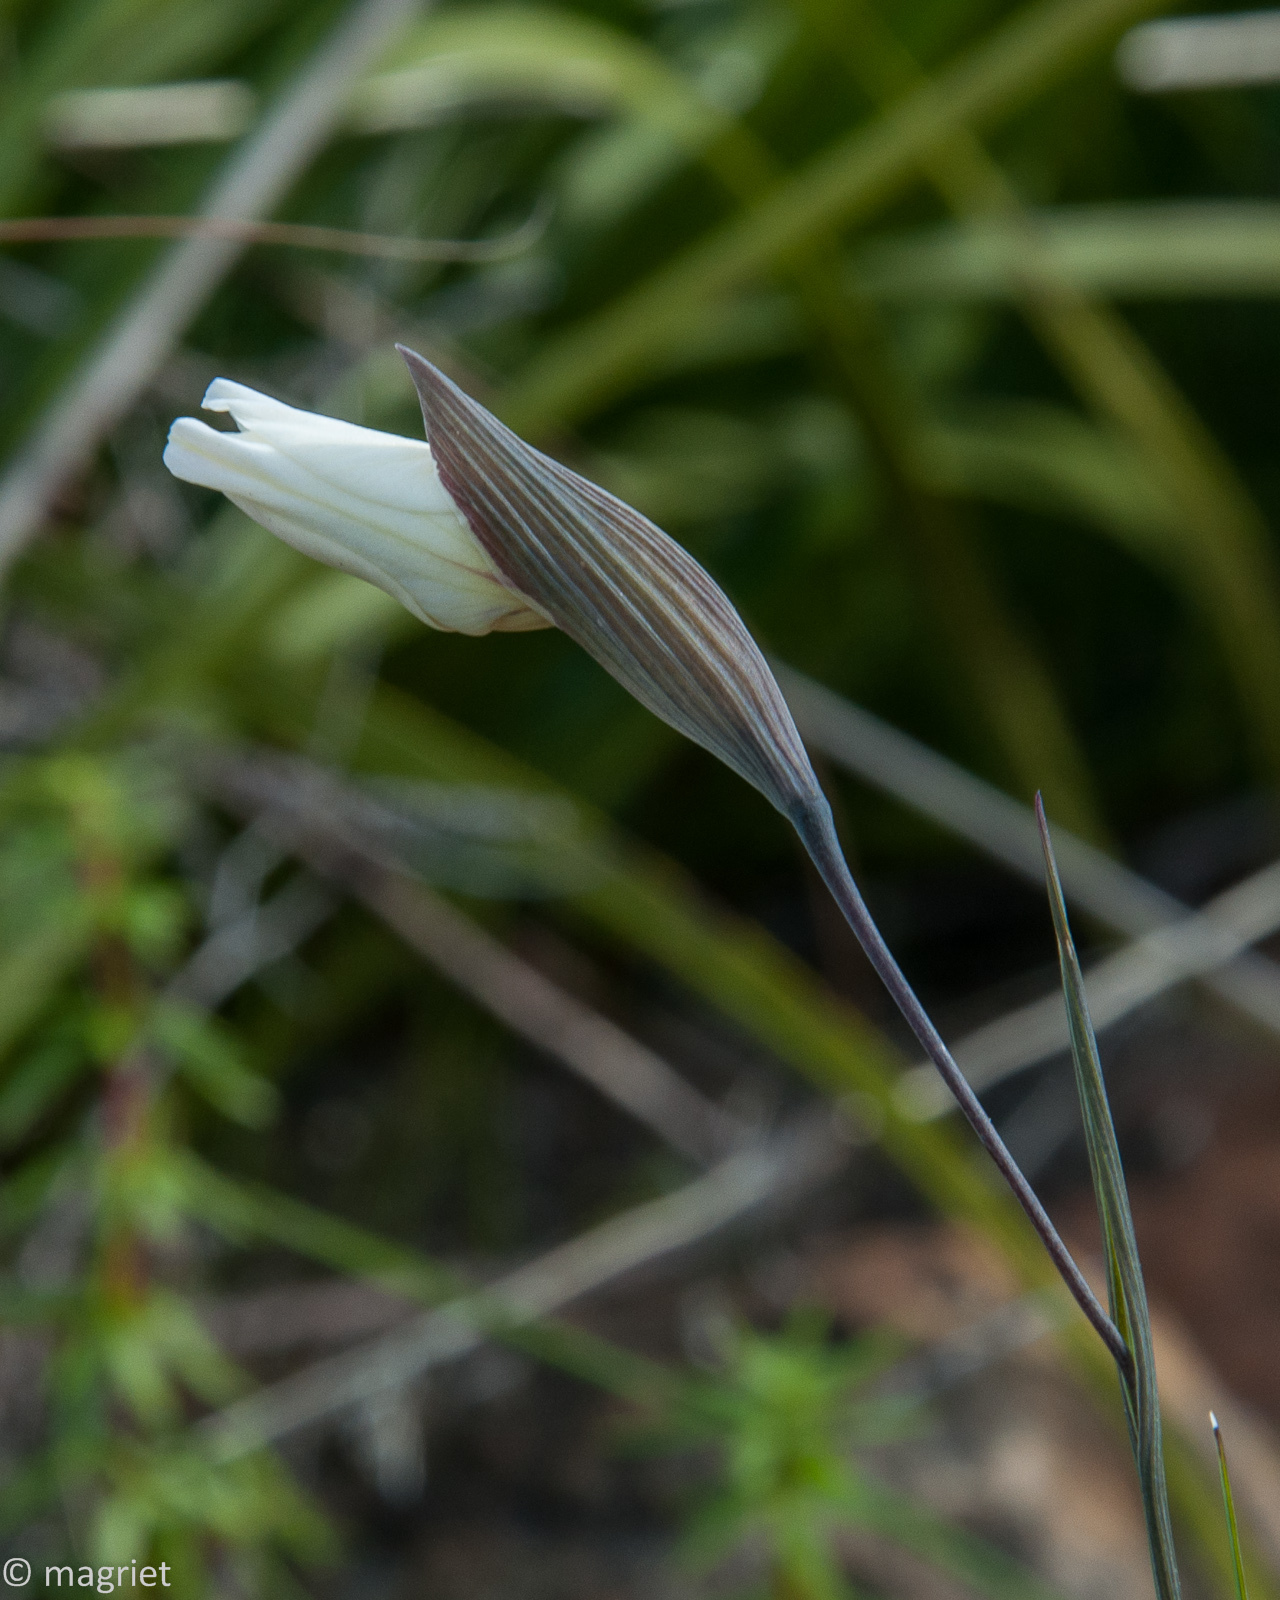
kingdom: Plantae
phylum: Tracheophyta
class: Liliopsida
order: Asparagales
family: Iridaceae
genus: Gladiolus
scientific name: Gladiolus debilis
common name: Painted-lady
